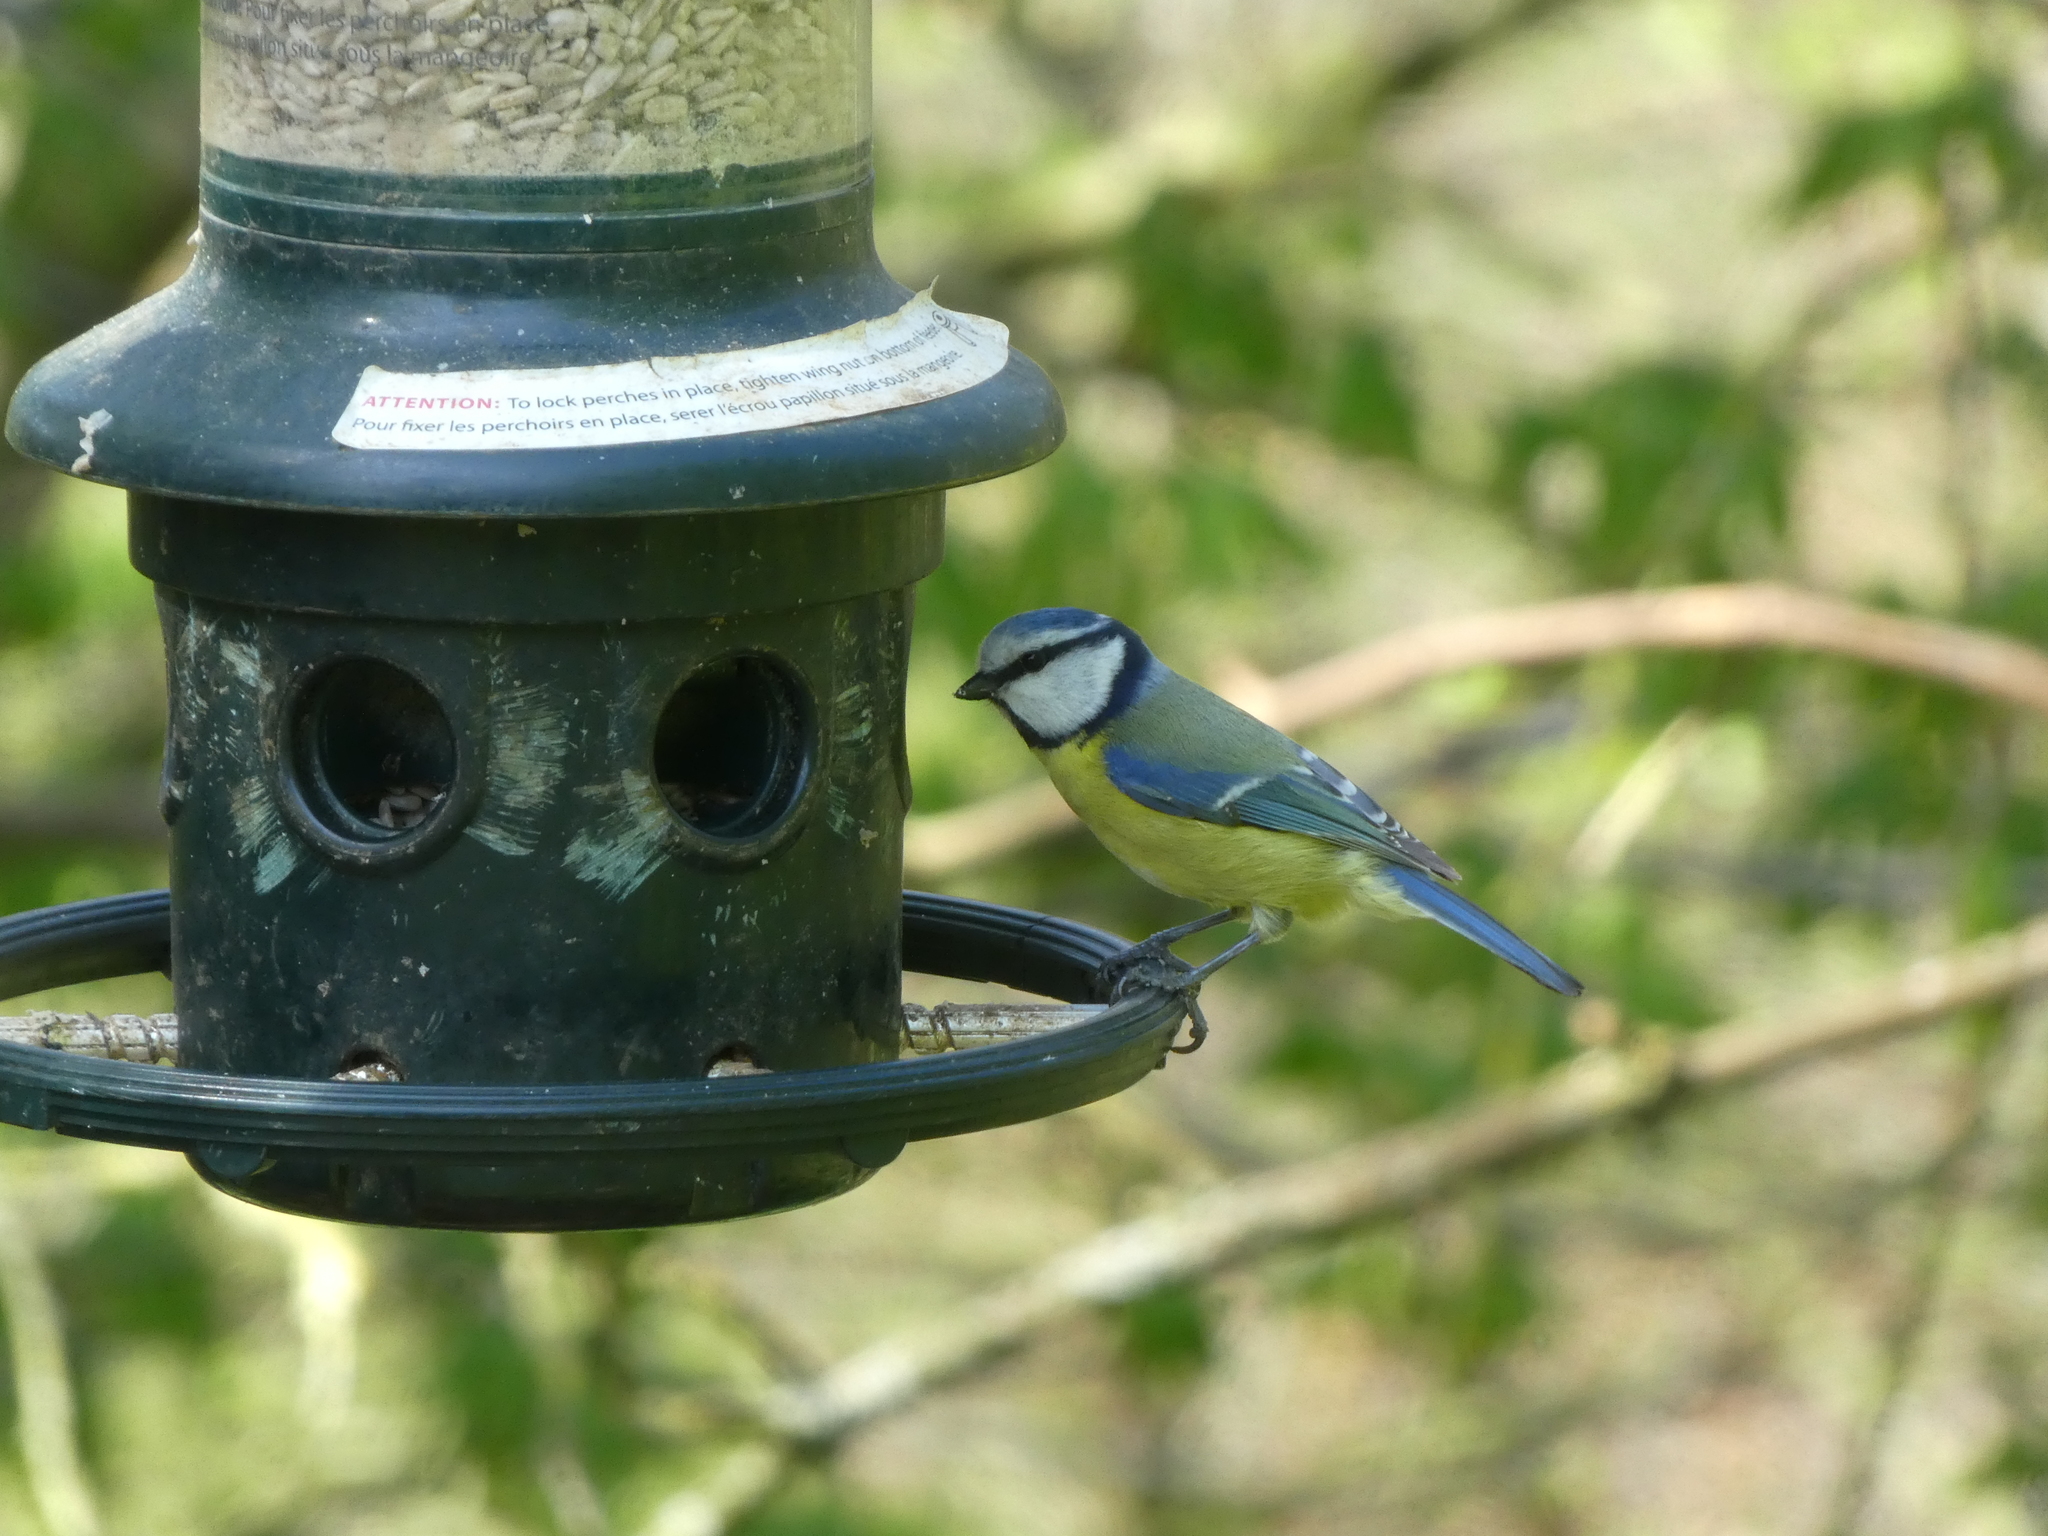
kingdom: Animalia
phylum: Chordata
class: Aves
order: Passeriformes
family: Paridae
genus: Cyanistes
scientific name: Cyanistes caeruleus
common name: Eurasian blue tit
